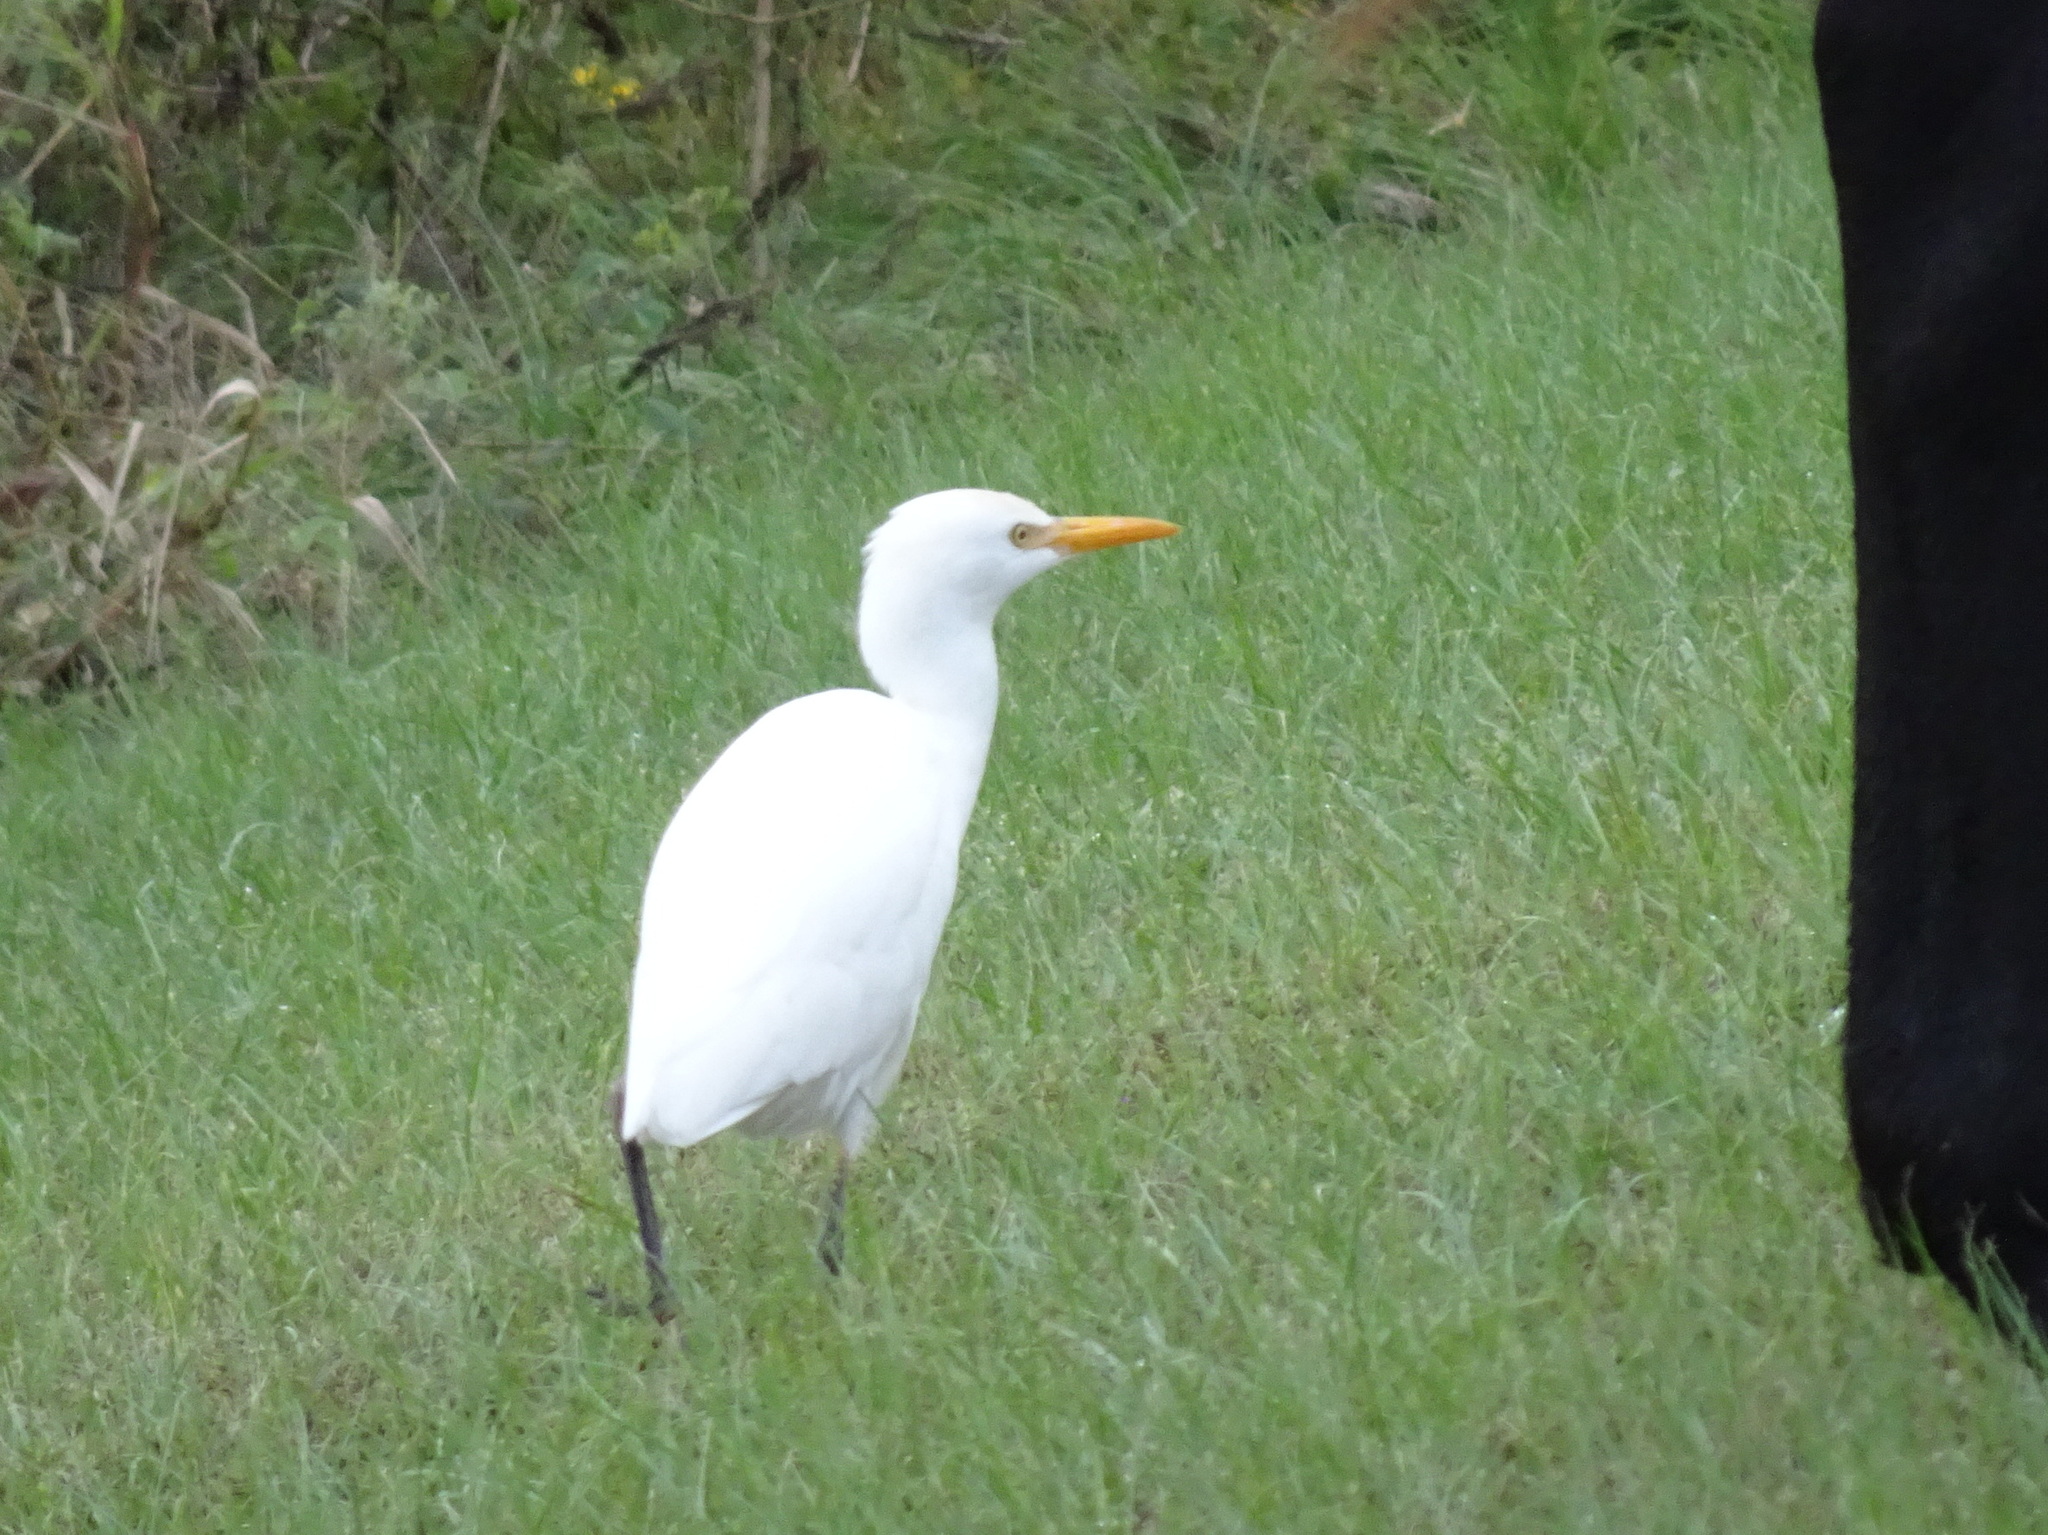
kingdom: Animalia
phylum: Chordata
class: Aves
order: Pelecaniformes
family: Ardeidae
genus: Bubulcus
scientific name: Bubulcus ibis
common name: Cattle egret
